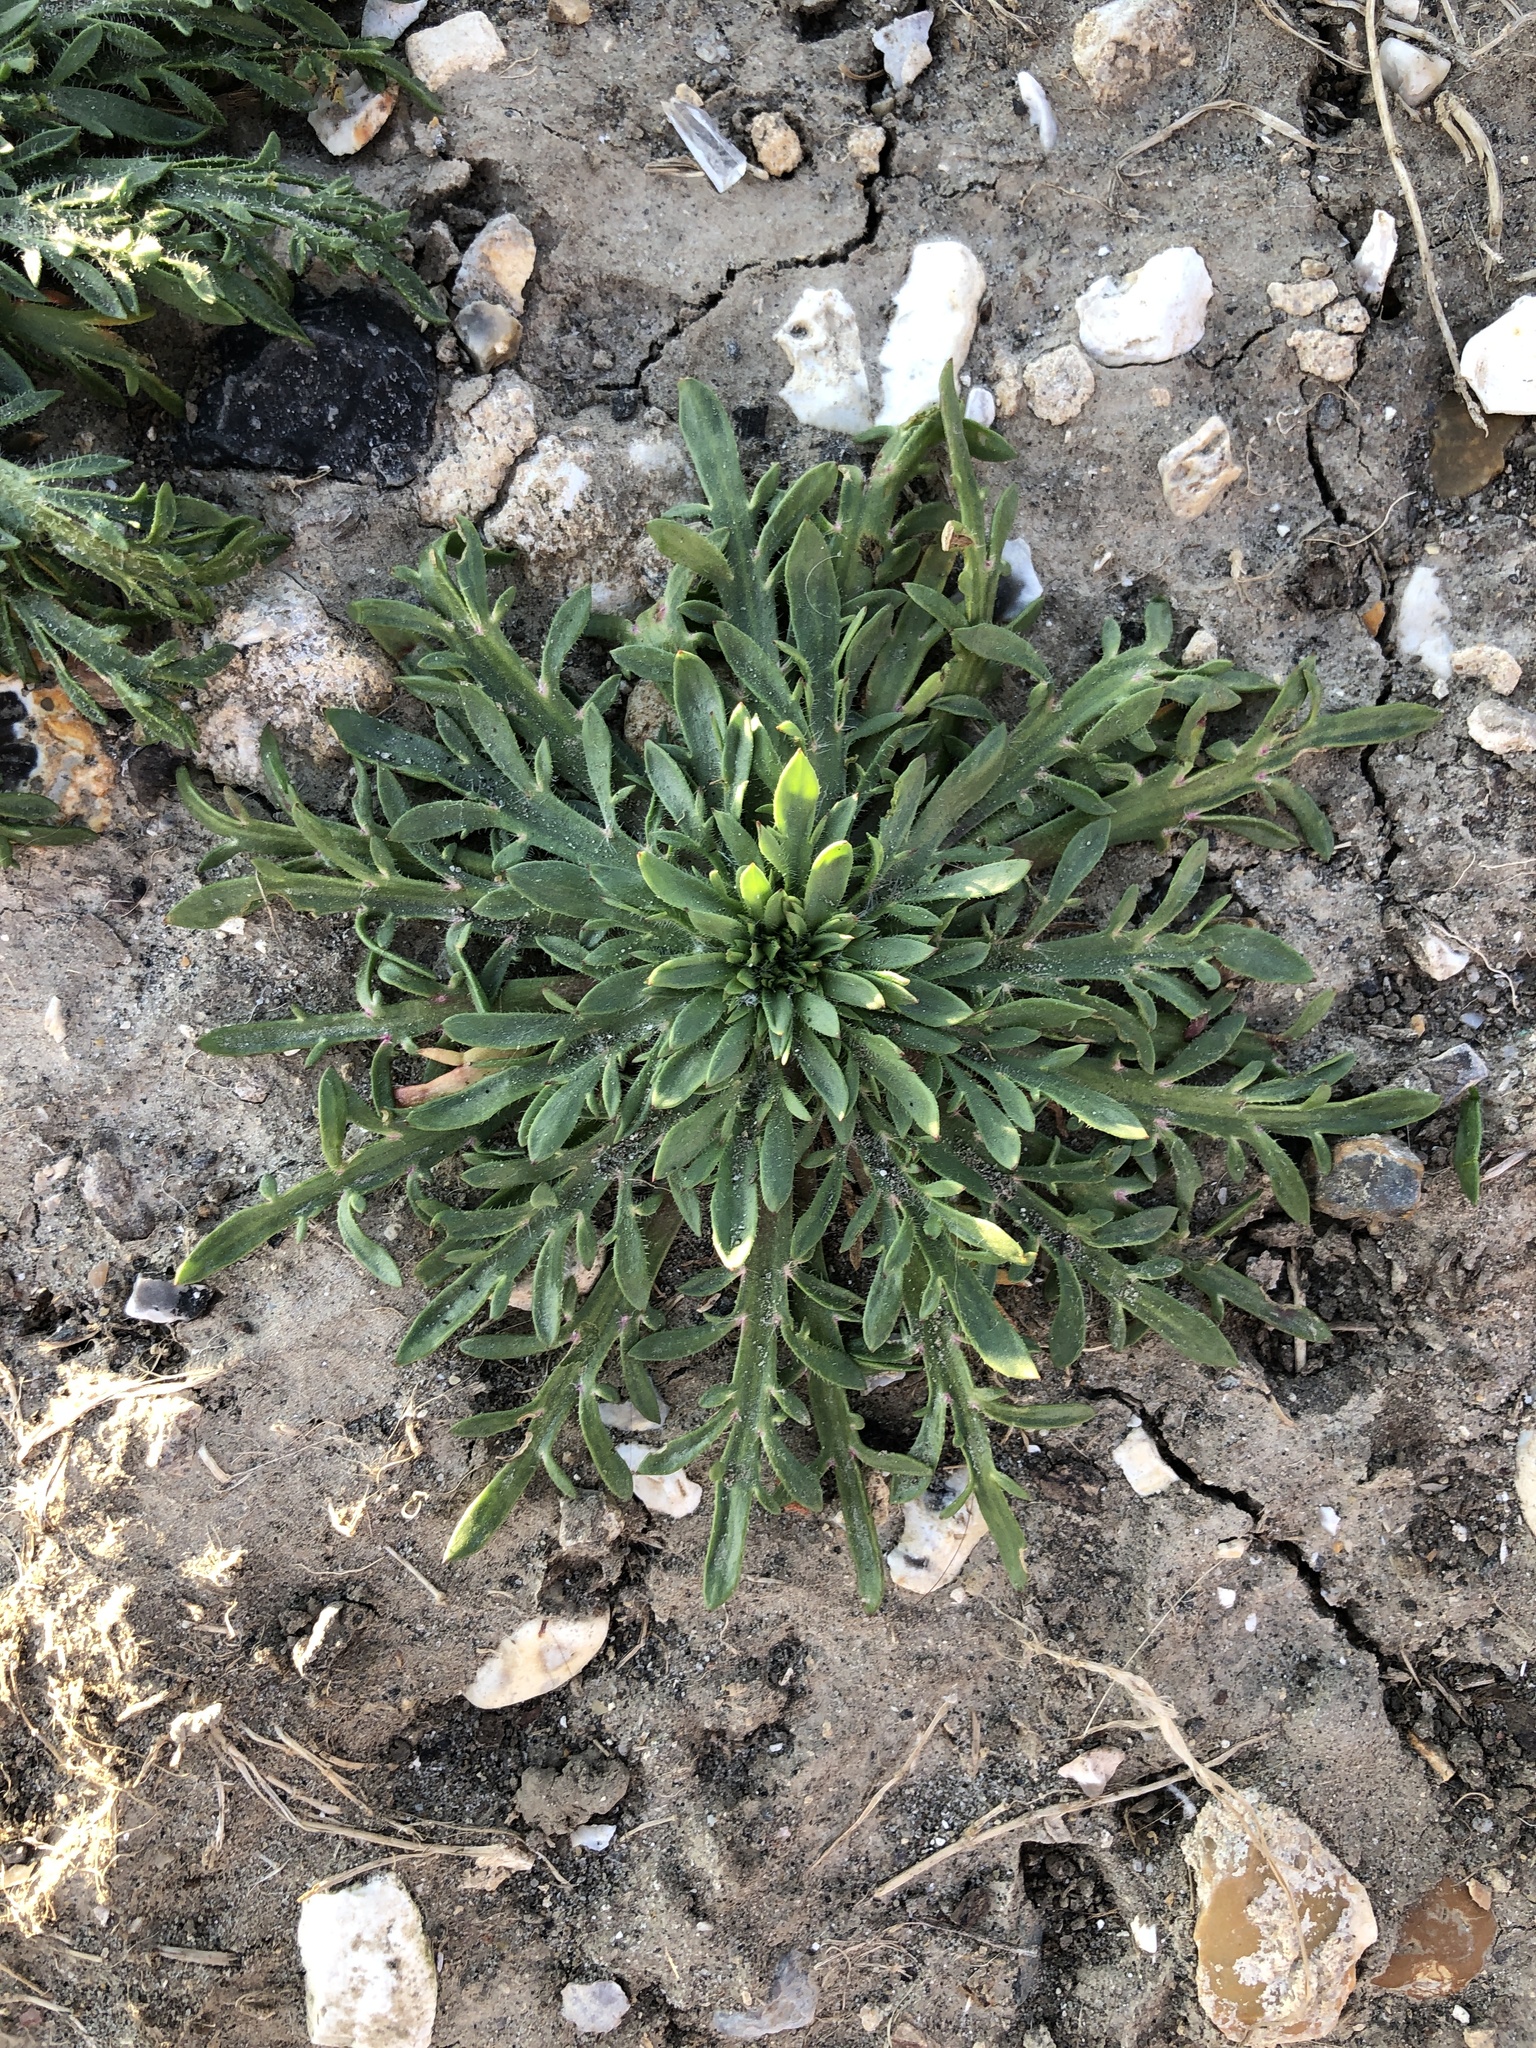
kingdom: Plantae
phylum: Tracheophyta
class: Magnoliopsida
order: Lamiales
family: Plantaginaceae
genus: Plantago
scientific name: Plantago coronopus
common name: Buck's-horn plantain
